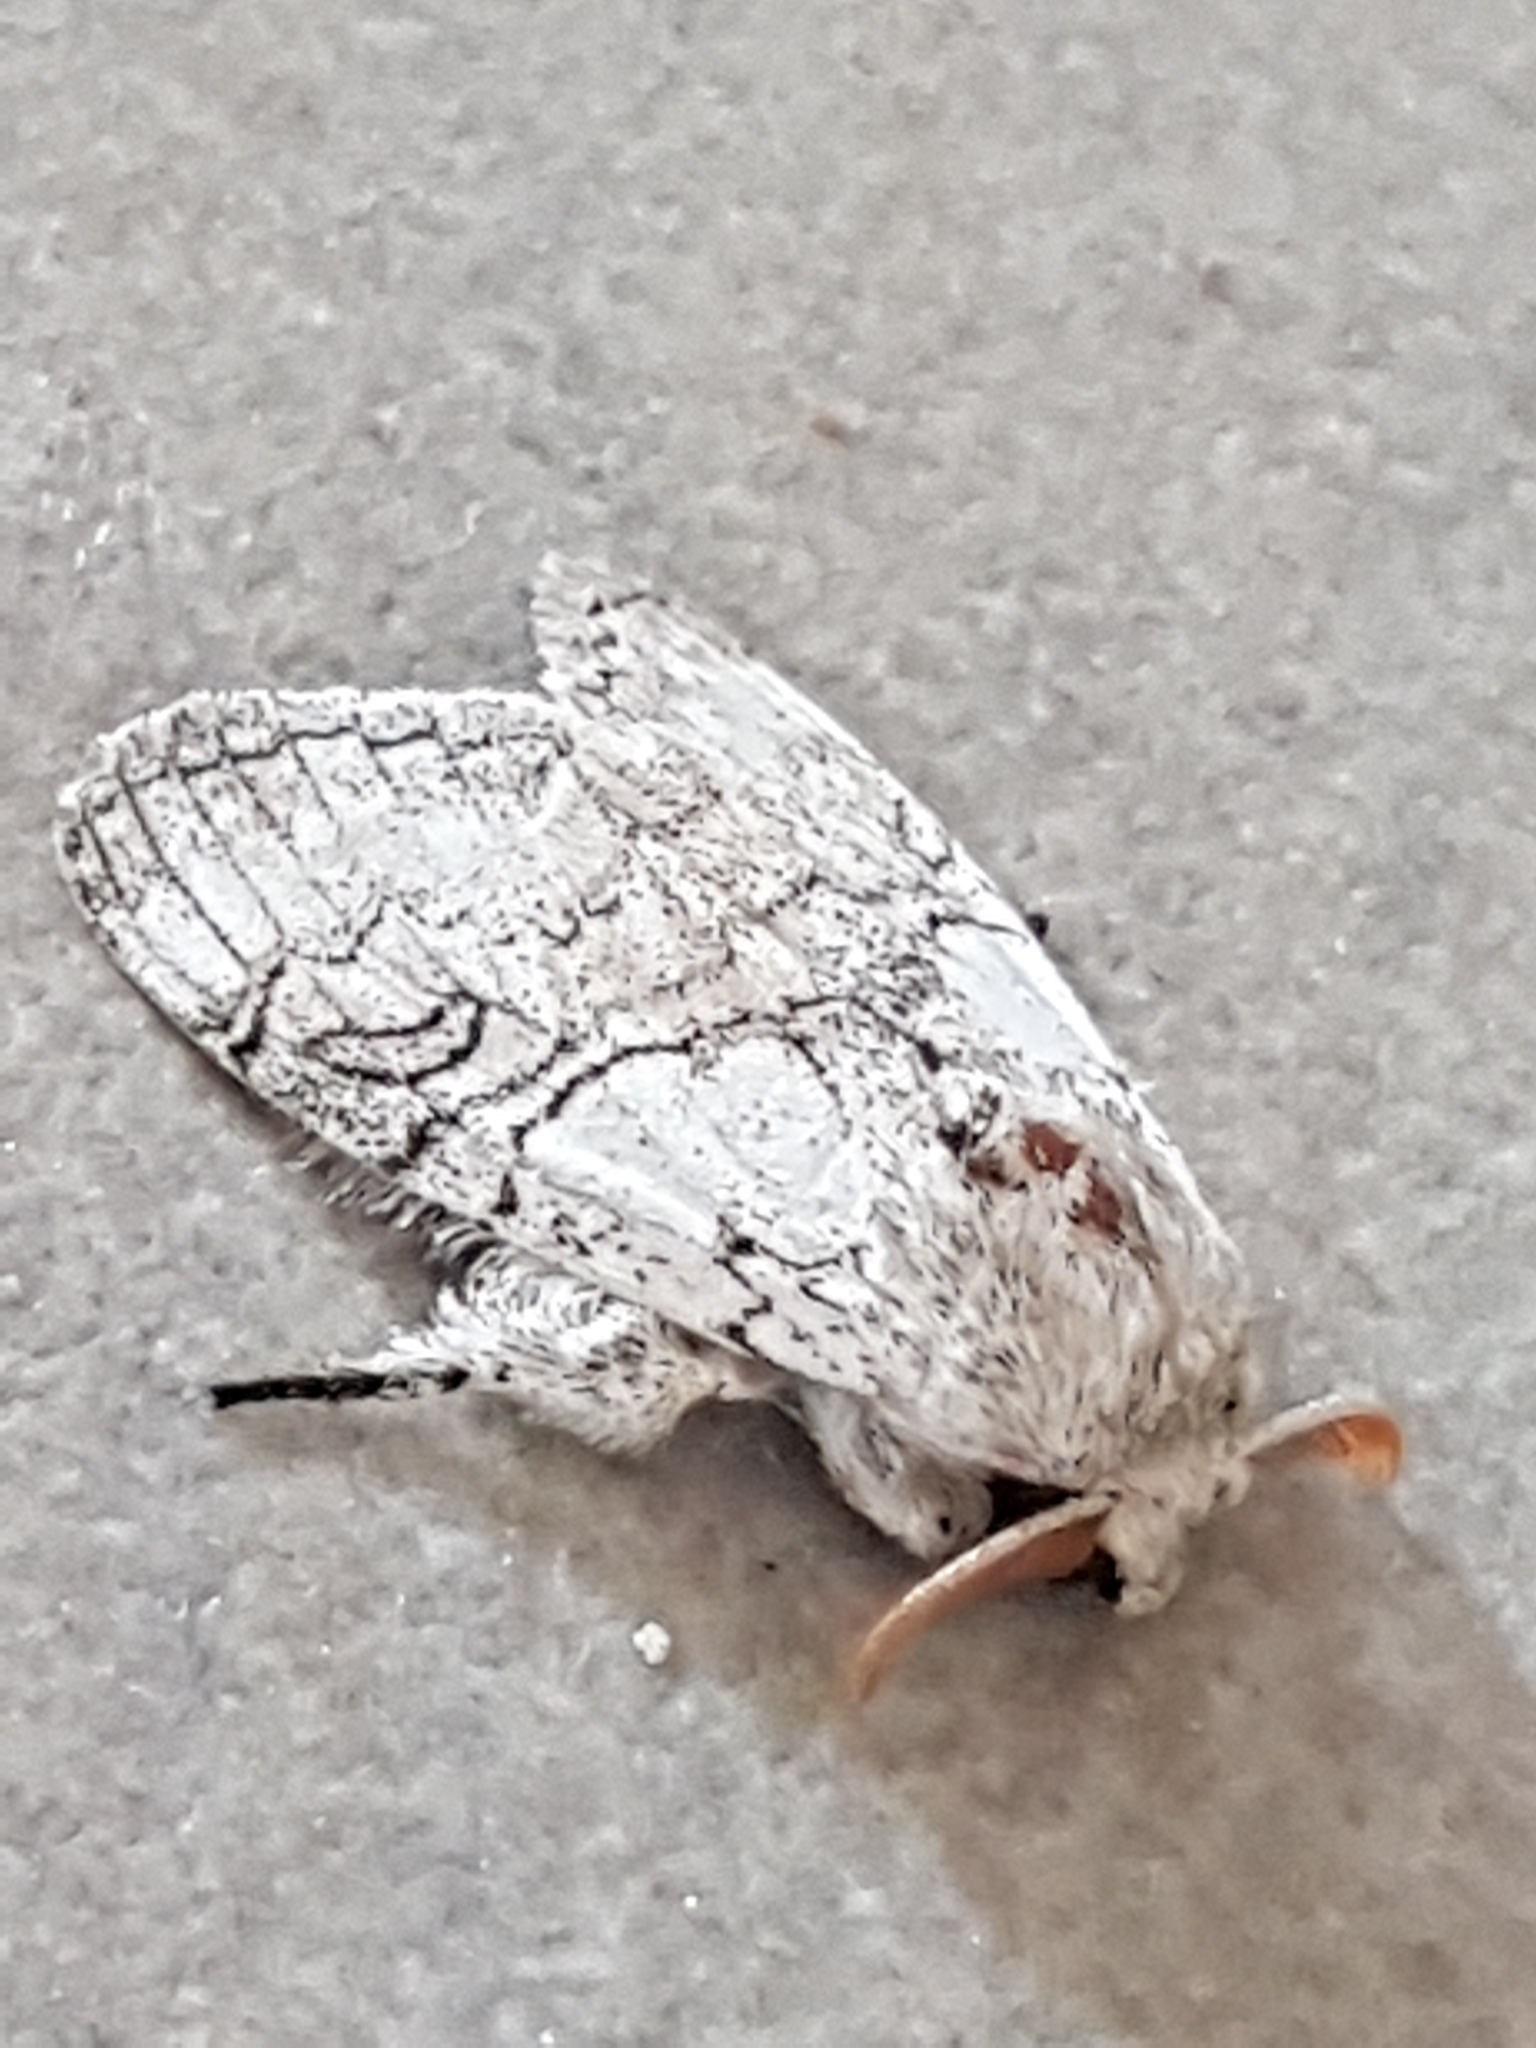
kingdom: Animalia
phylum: Arthropoda
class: Insecta
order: Lepidoptera
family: Erebidae
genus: Calliteara
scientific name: Calliteara horsfieldii
